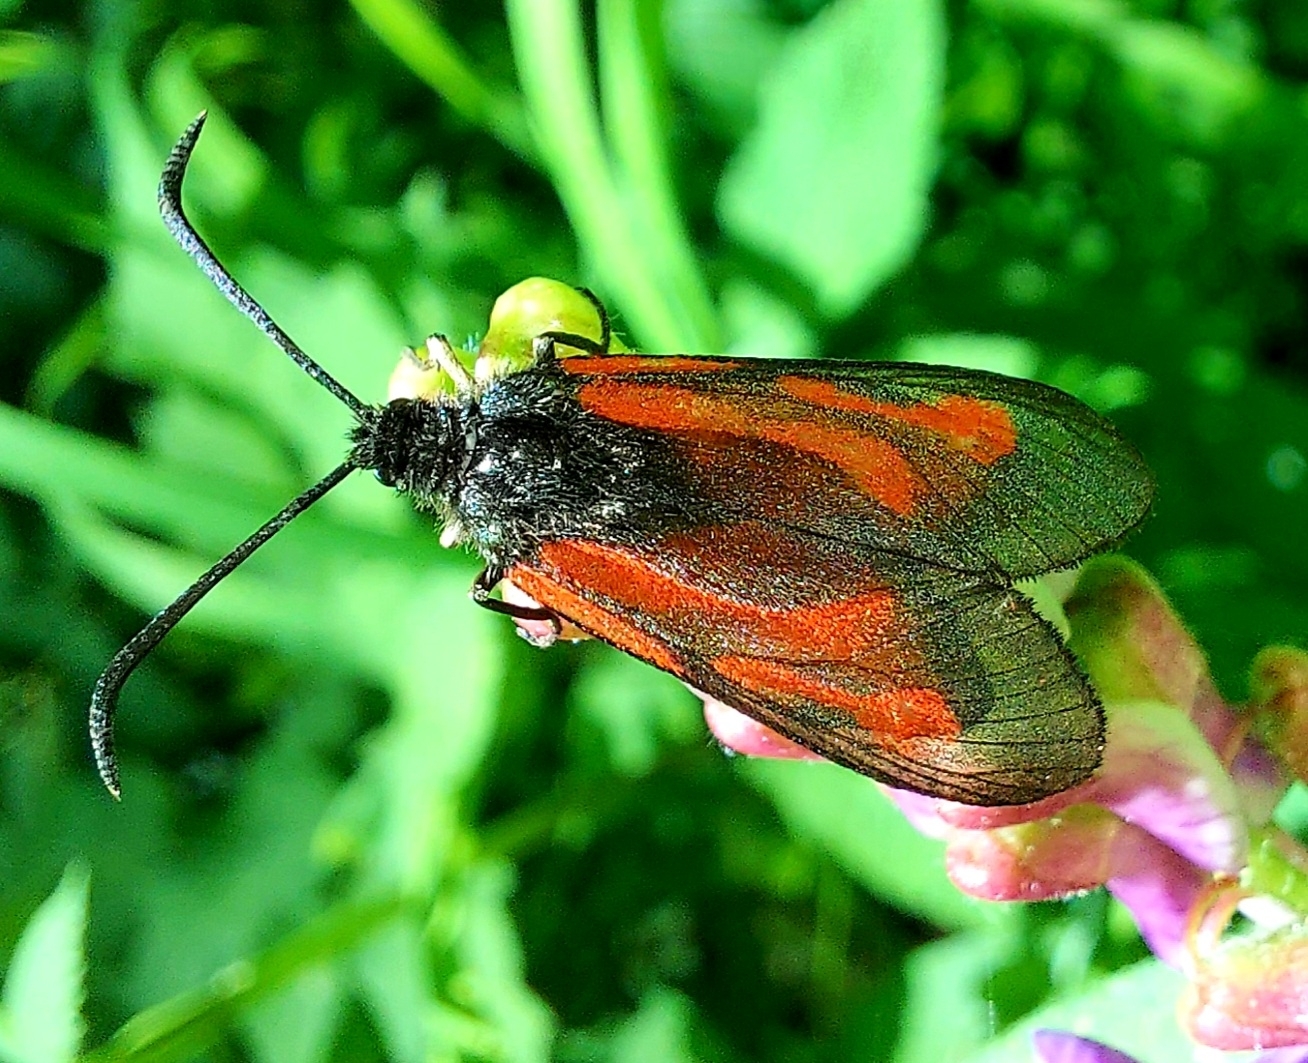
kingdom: Animalia
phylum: Arthropoda
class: Insecta
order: Lepidoptera
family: Zygaenidae
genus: Zygaena
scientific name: Zygaena osterodensis
